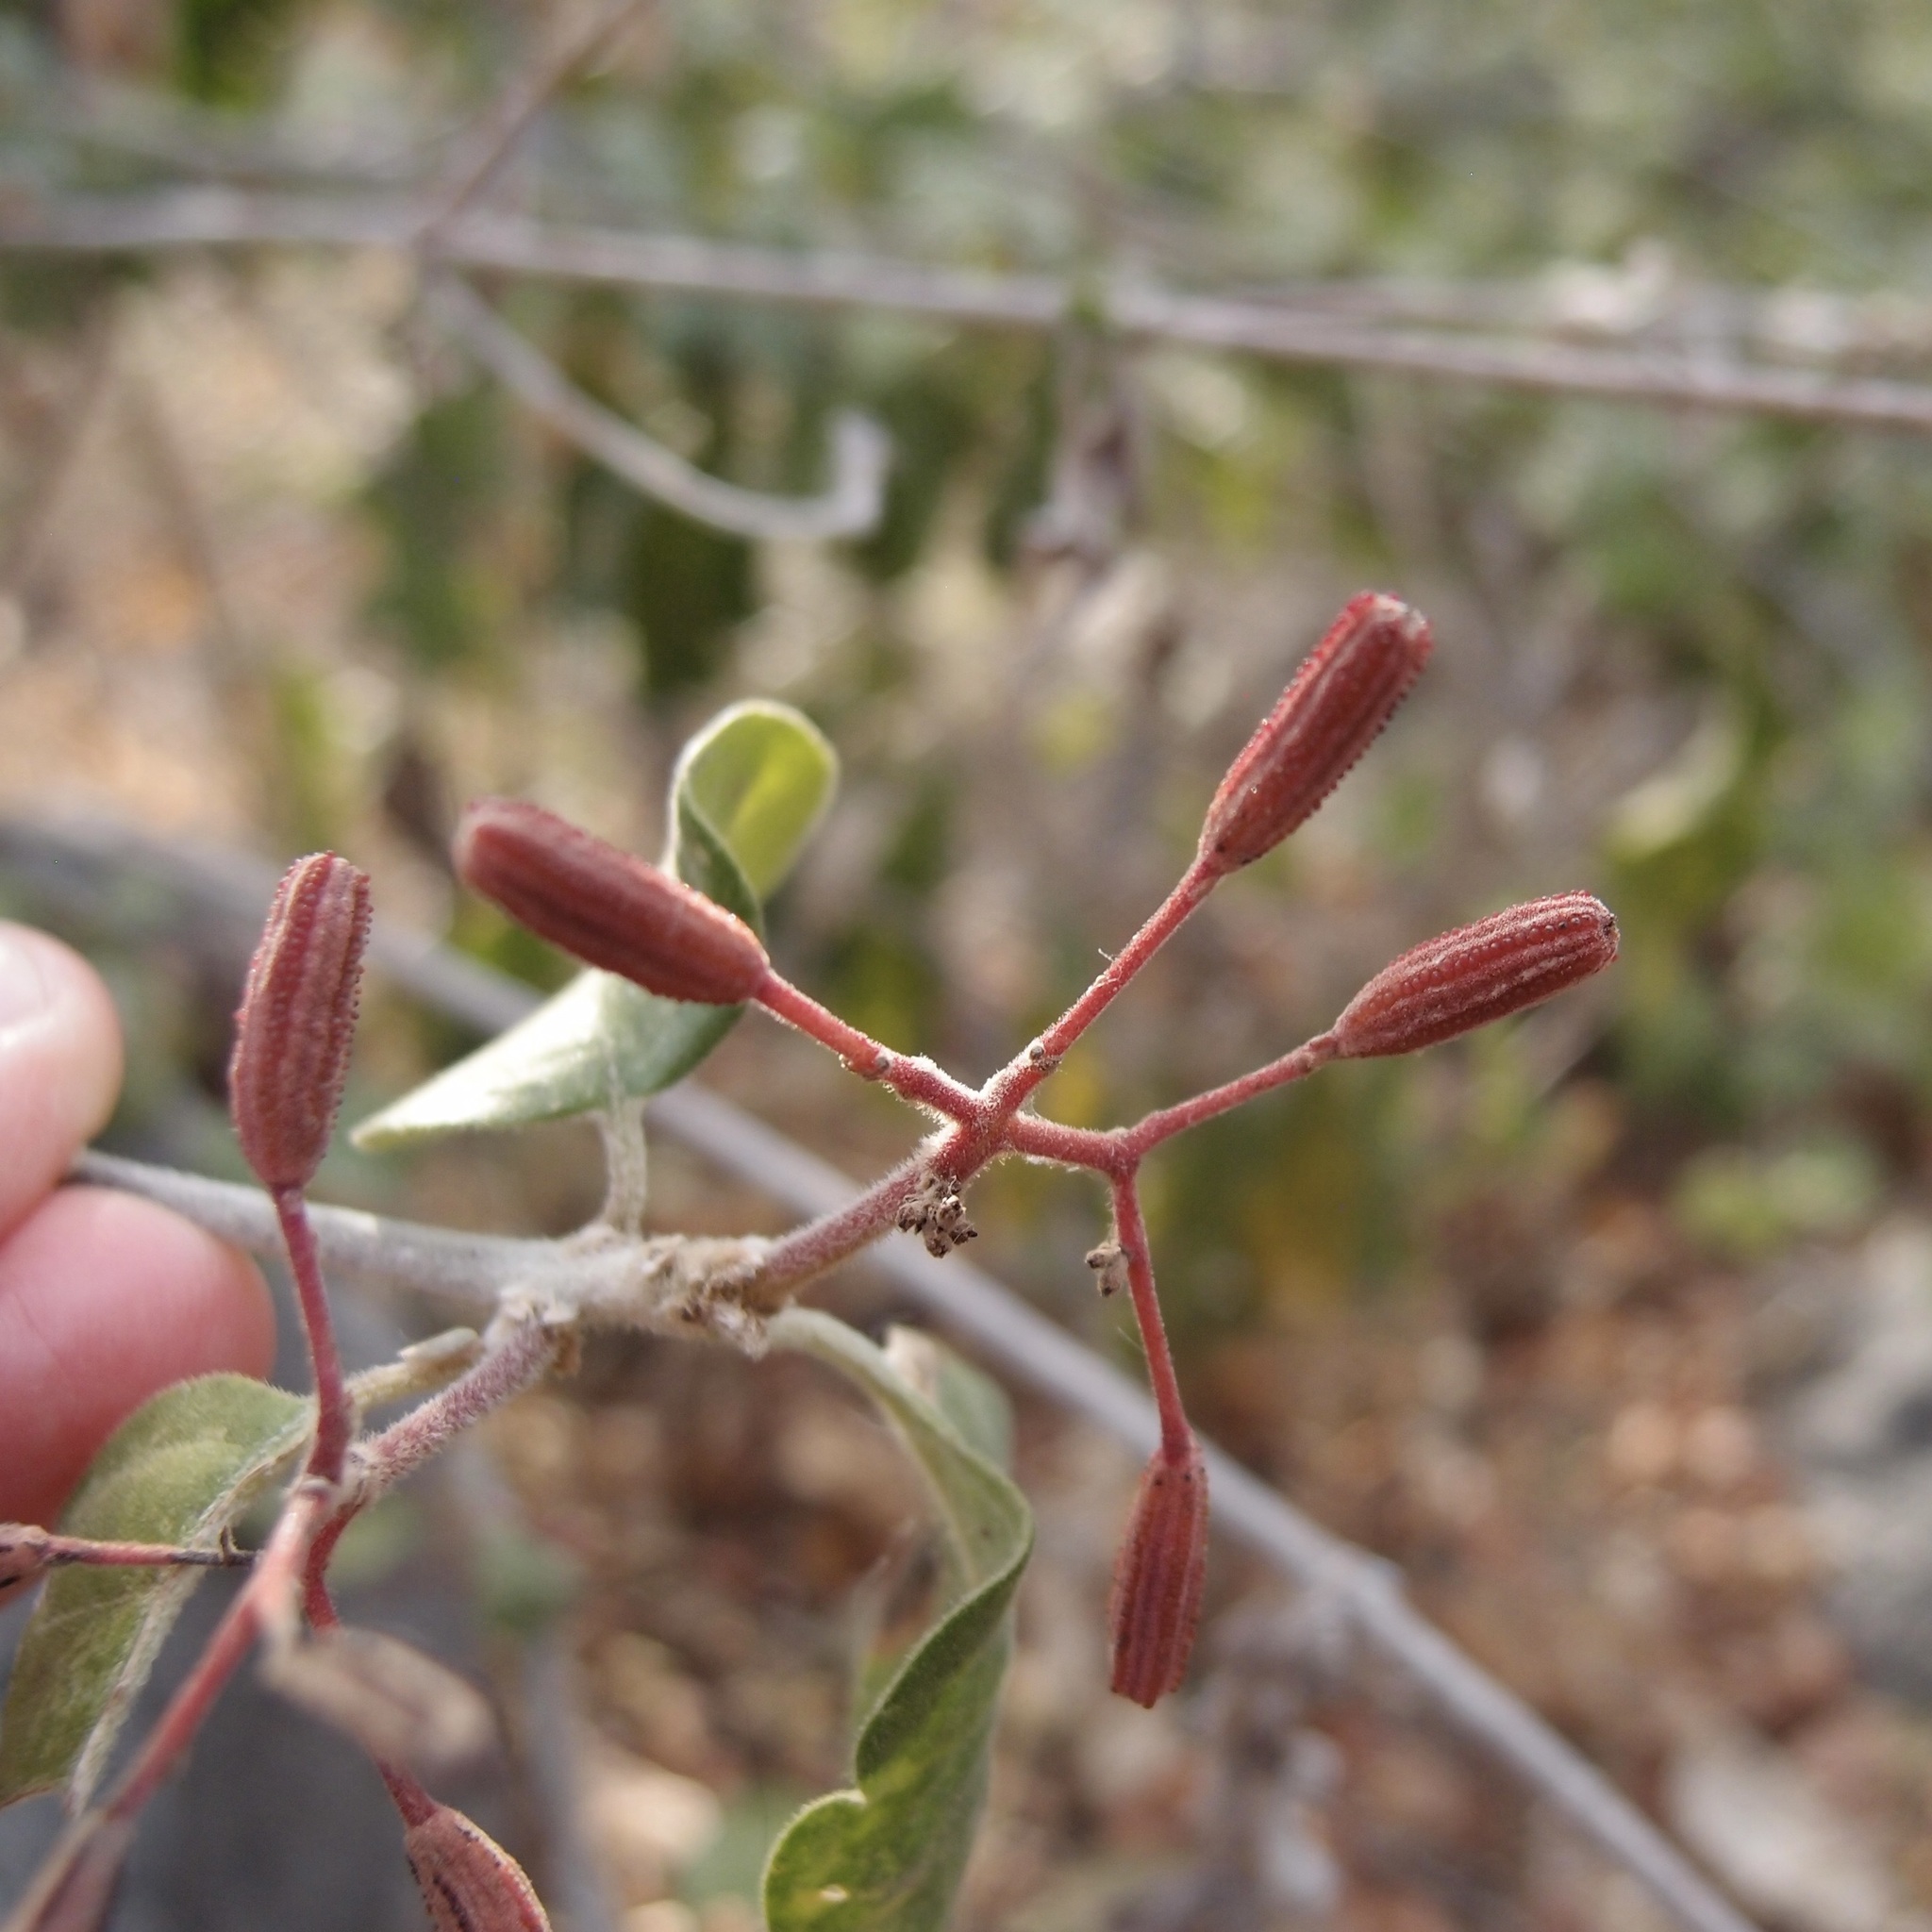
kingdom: Plantae
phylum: Tracheophyta
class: Magnoliopsida
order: Caryophyllales
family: Nyctaginaceae
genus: Pisonia
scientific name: Pisonia capitata
